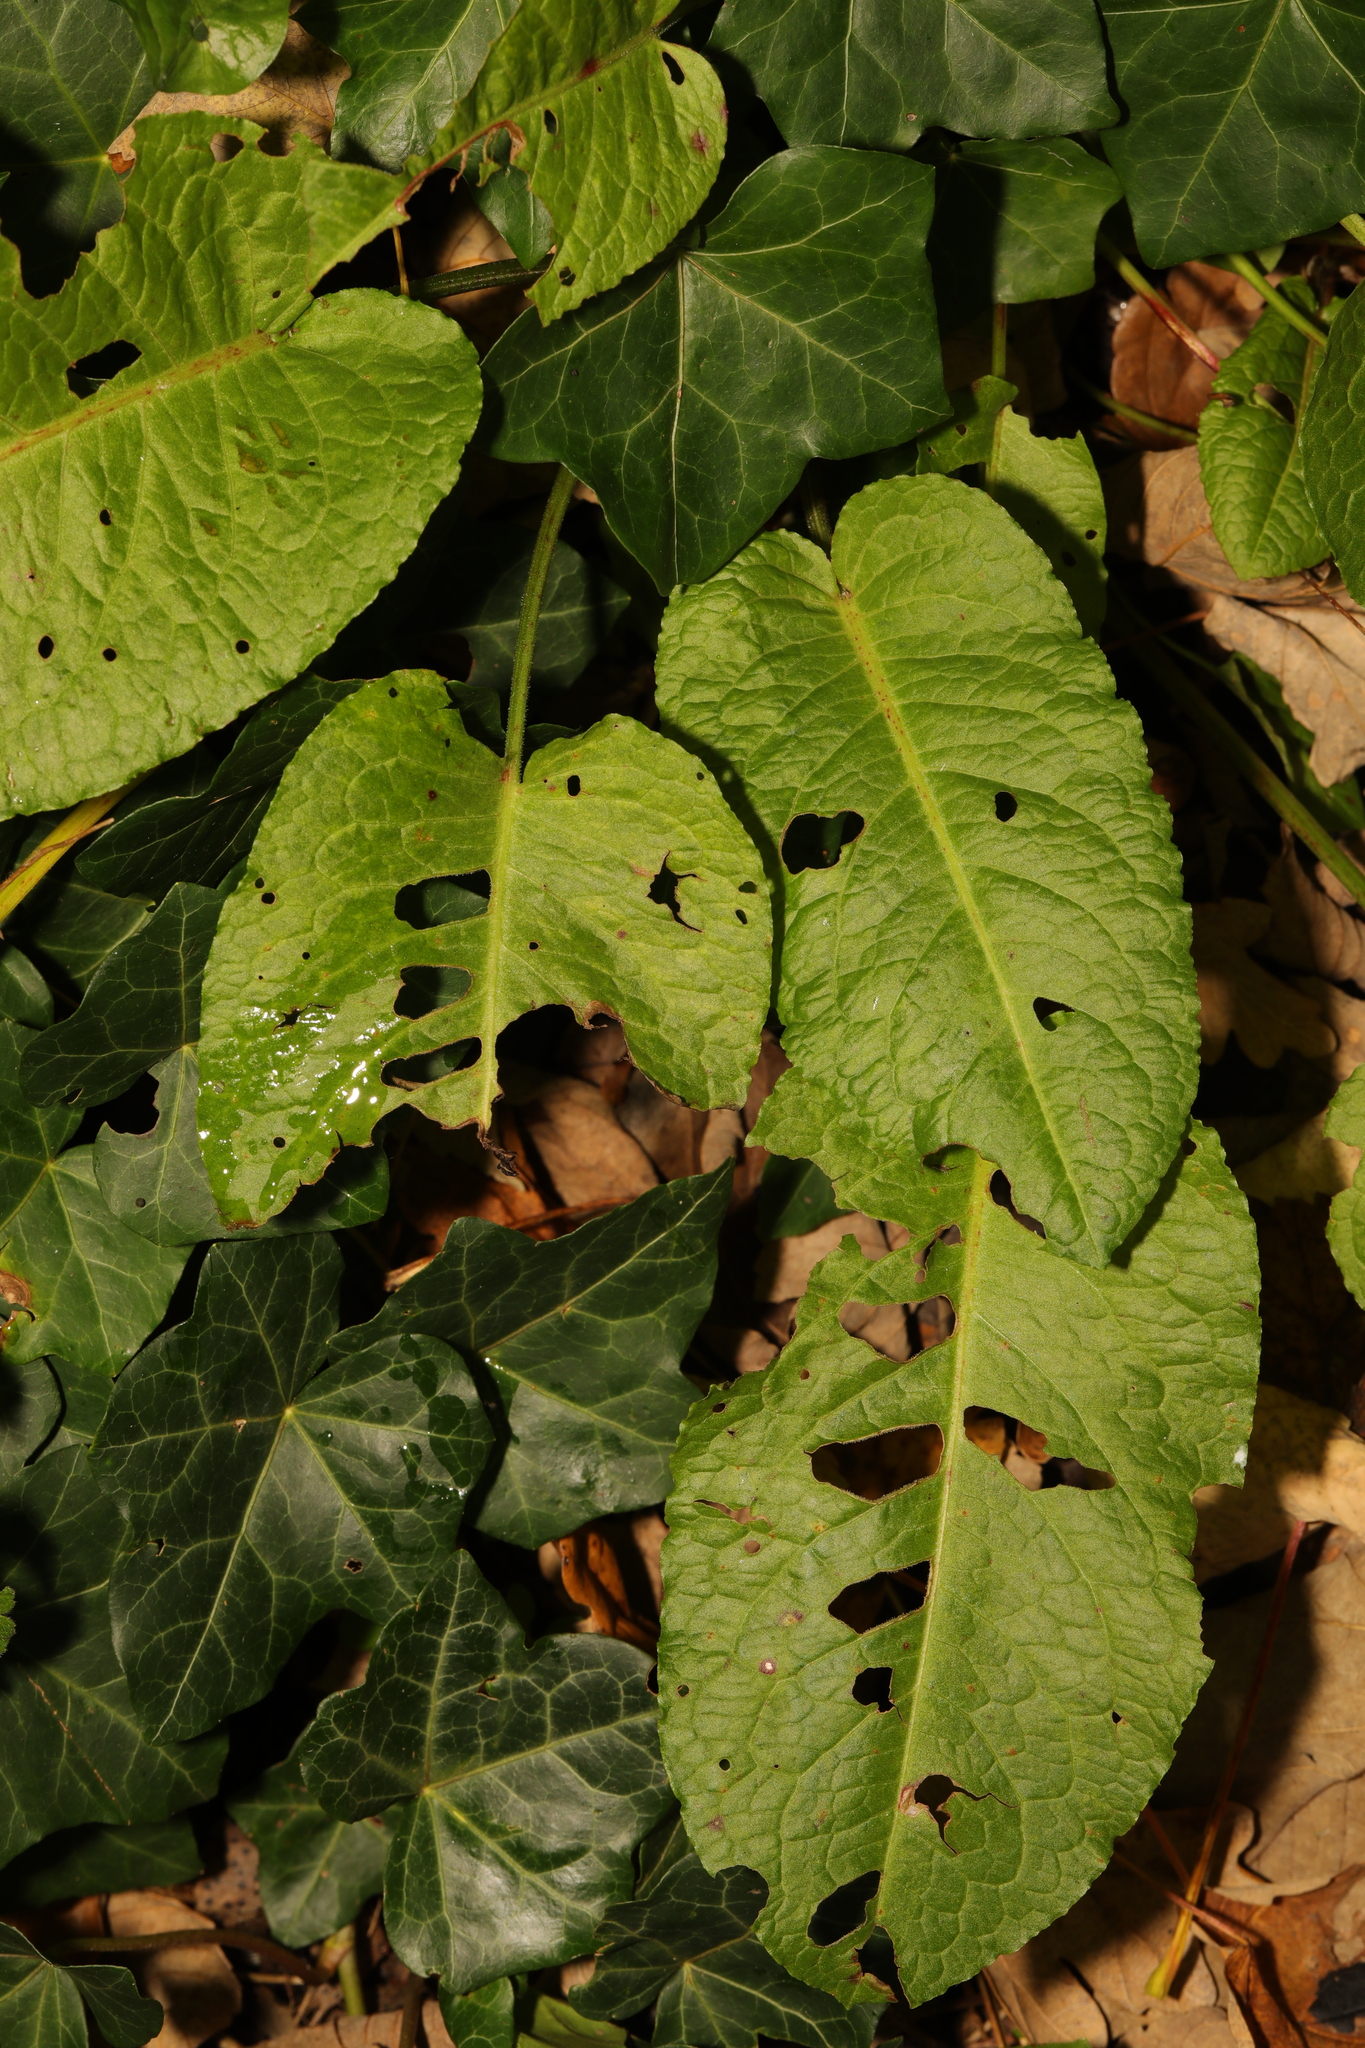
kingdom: Plantae
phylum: Tracheophyta
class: Magnoliopsida
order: Caryophyllales
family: Polygonaceae
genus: Rumex
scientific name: Rumex obtusifolius
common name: Bitter dock
